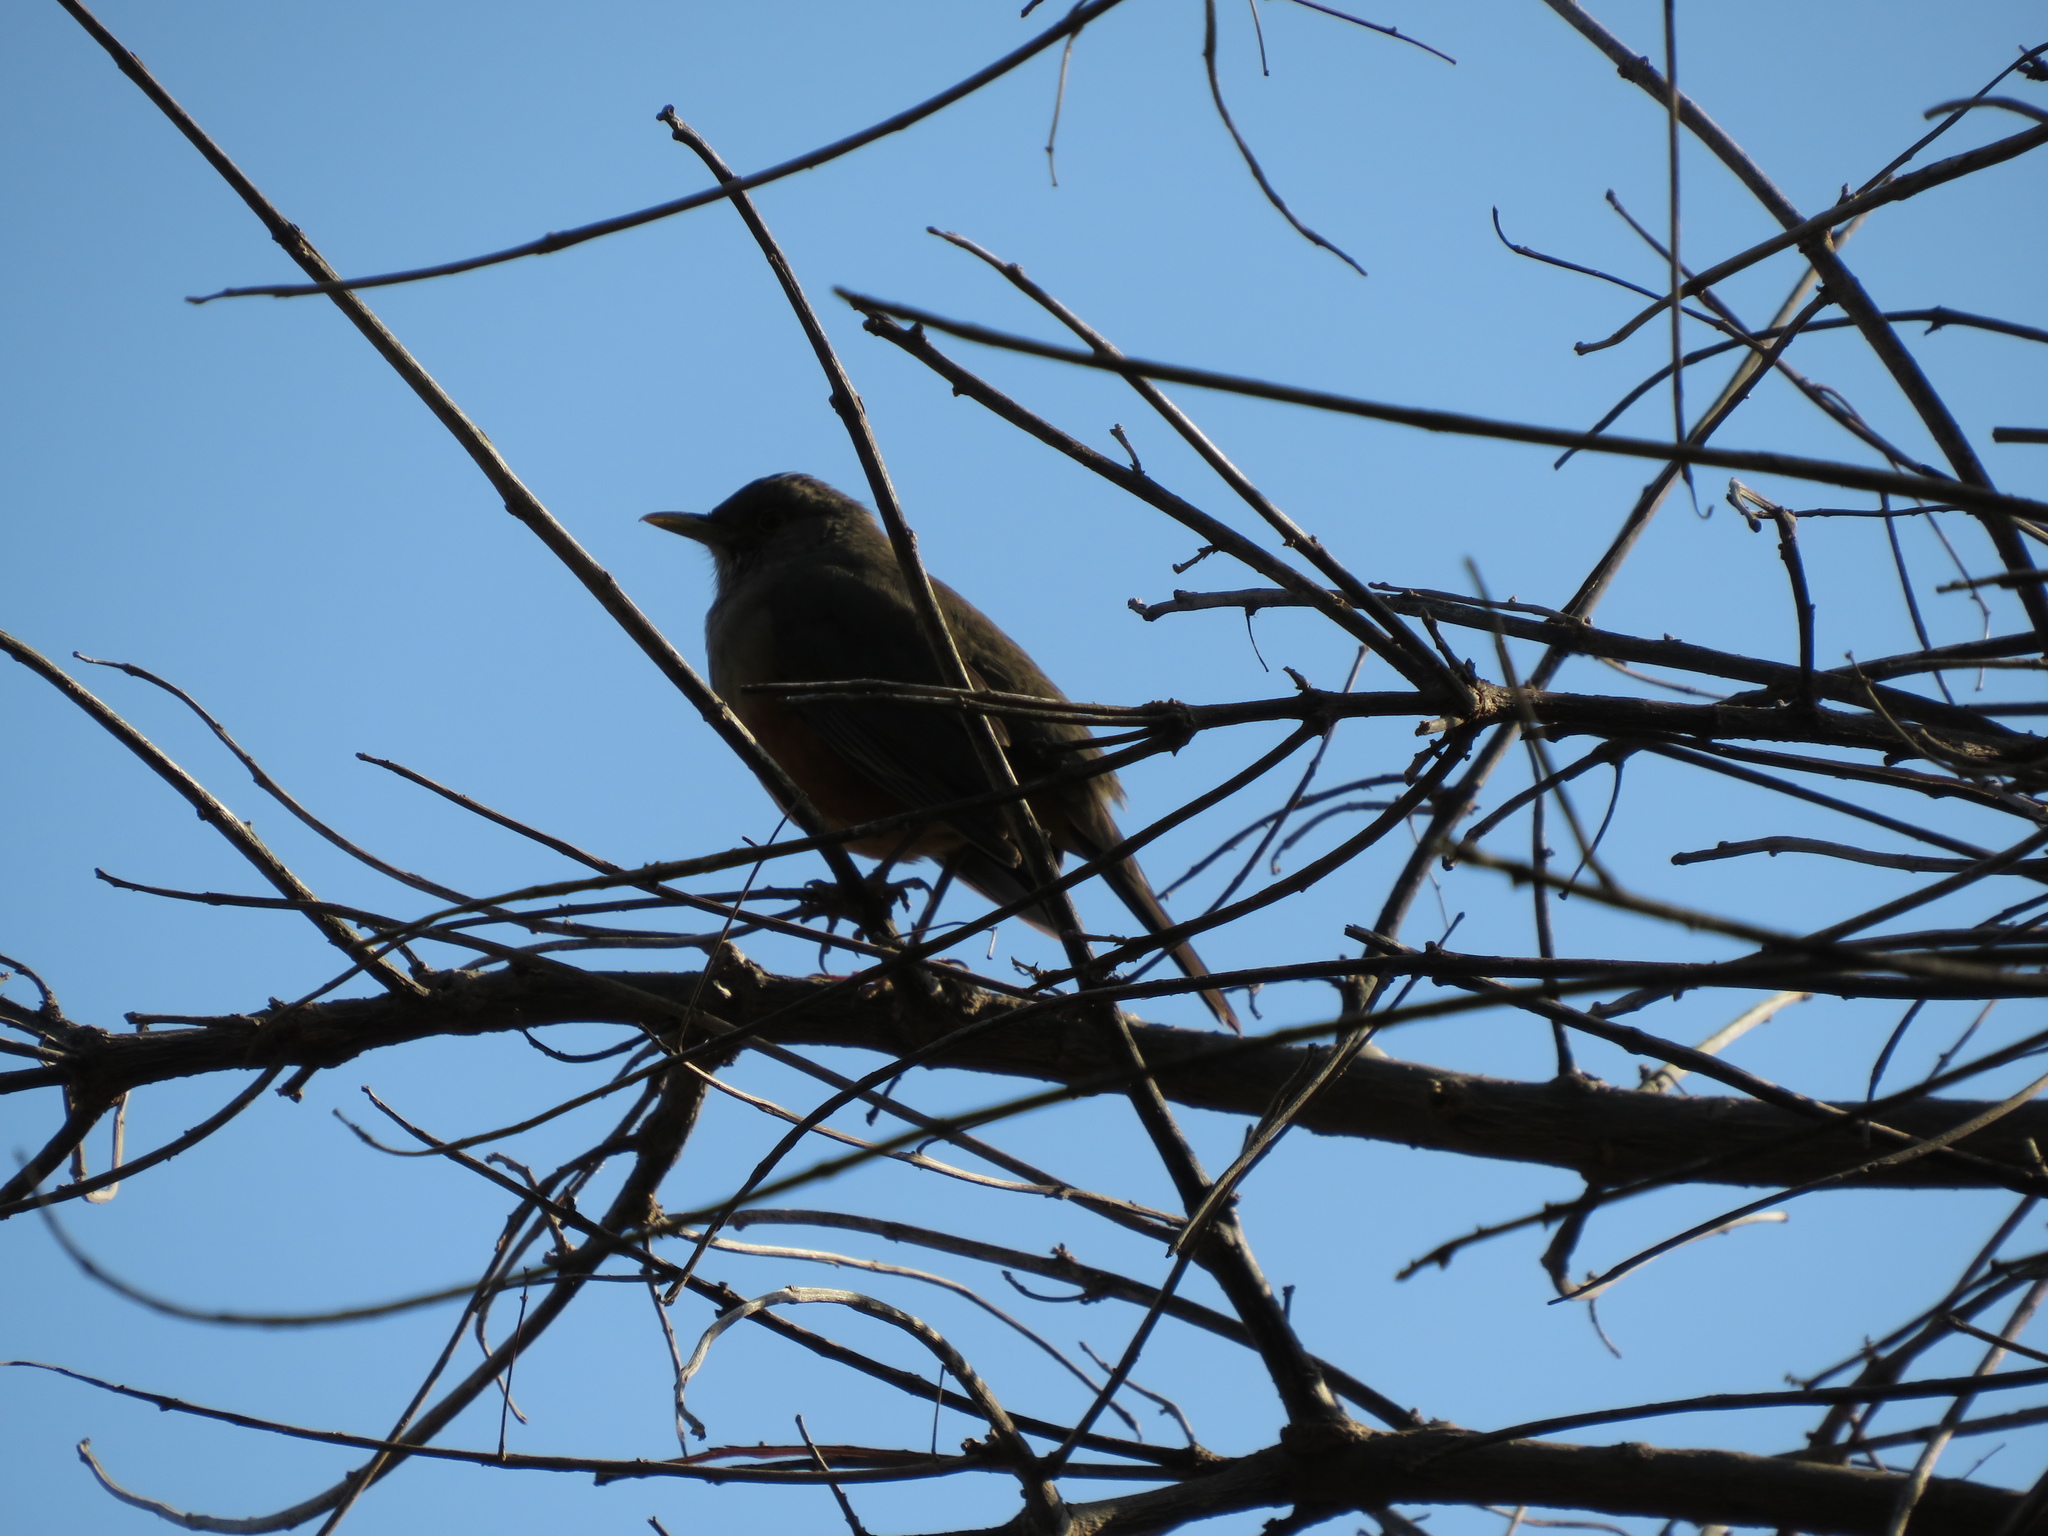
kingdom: Animalia
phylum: Chordata
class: Aves
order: Passeriformes
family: Turdidae
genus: Turdus
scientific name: Turdus rufiventris
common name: Rufous-bellied thrush
